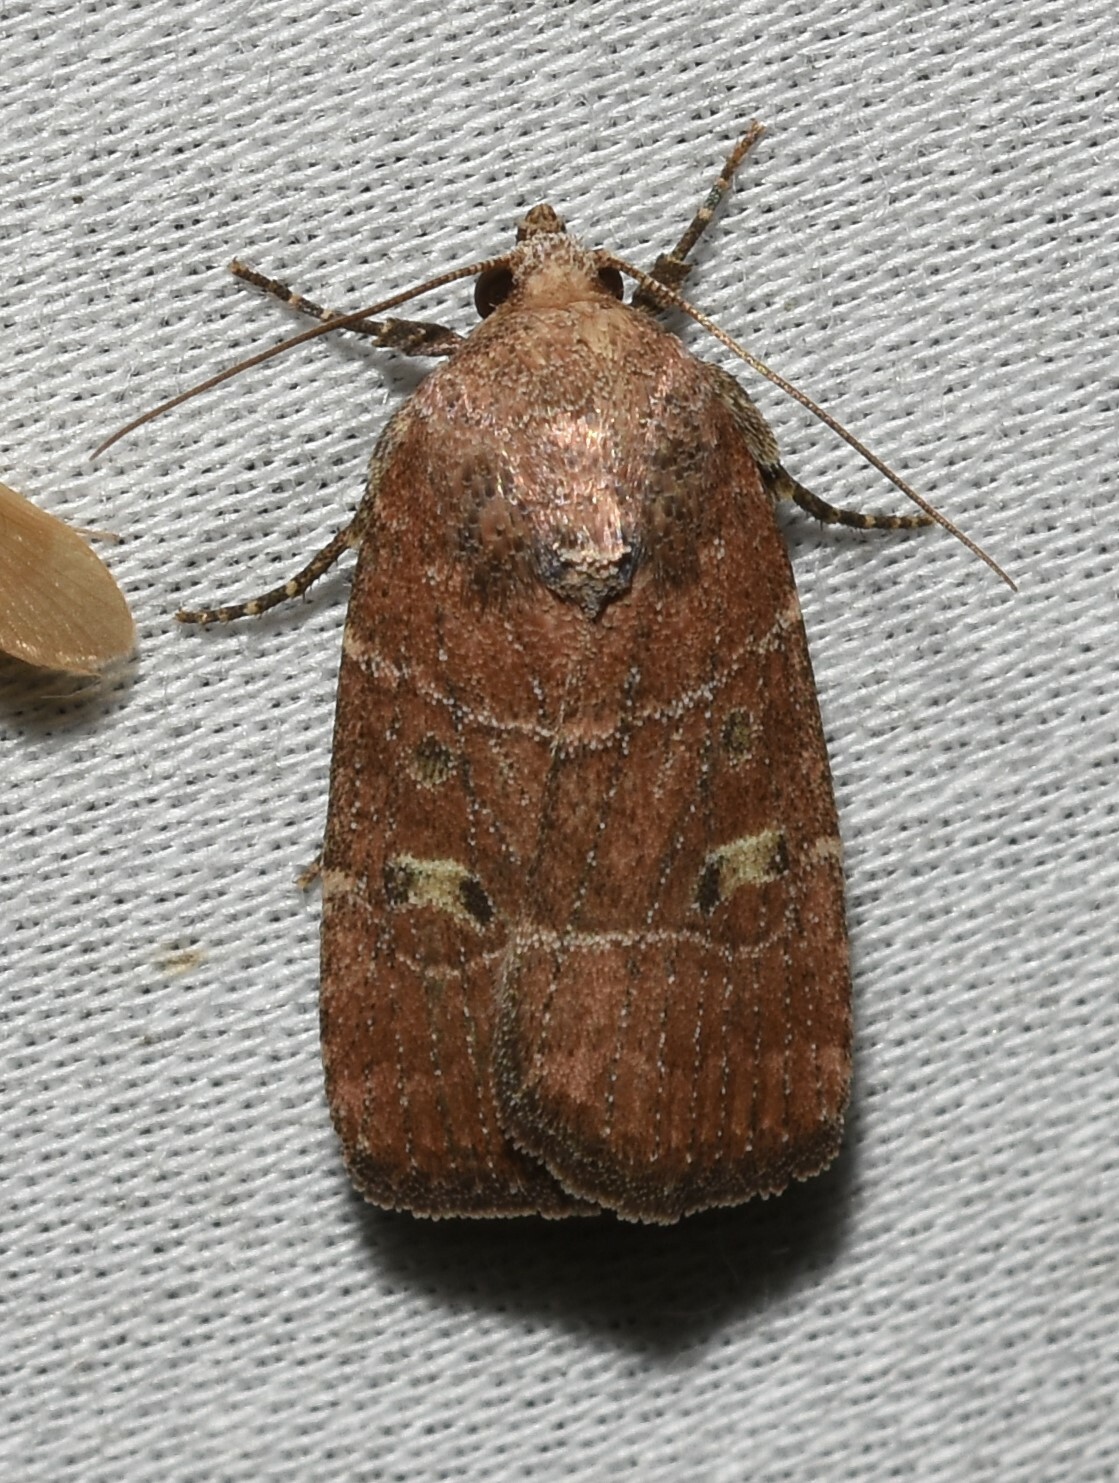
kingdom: Animalia
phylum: Arthropoda
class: Insecta
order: Lepidoptera
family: Noctuidae
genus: Elaphria
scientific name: Elaphria grata
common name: Grateful midget moth
